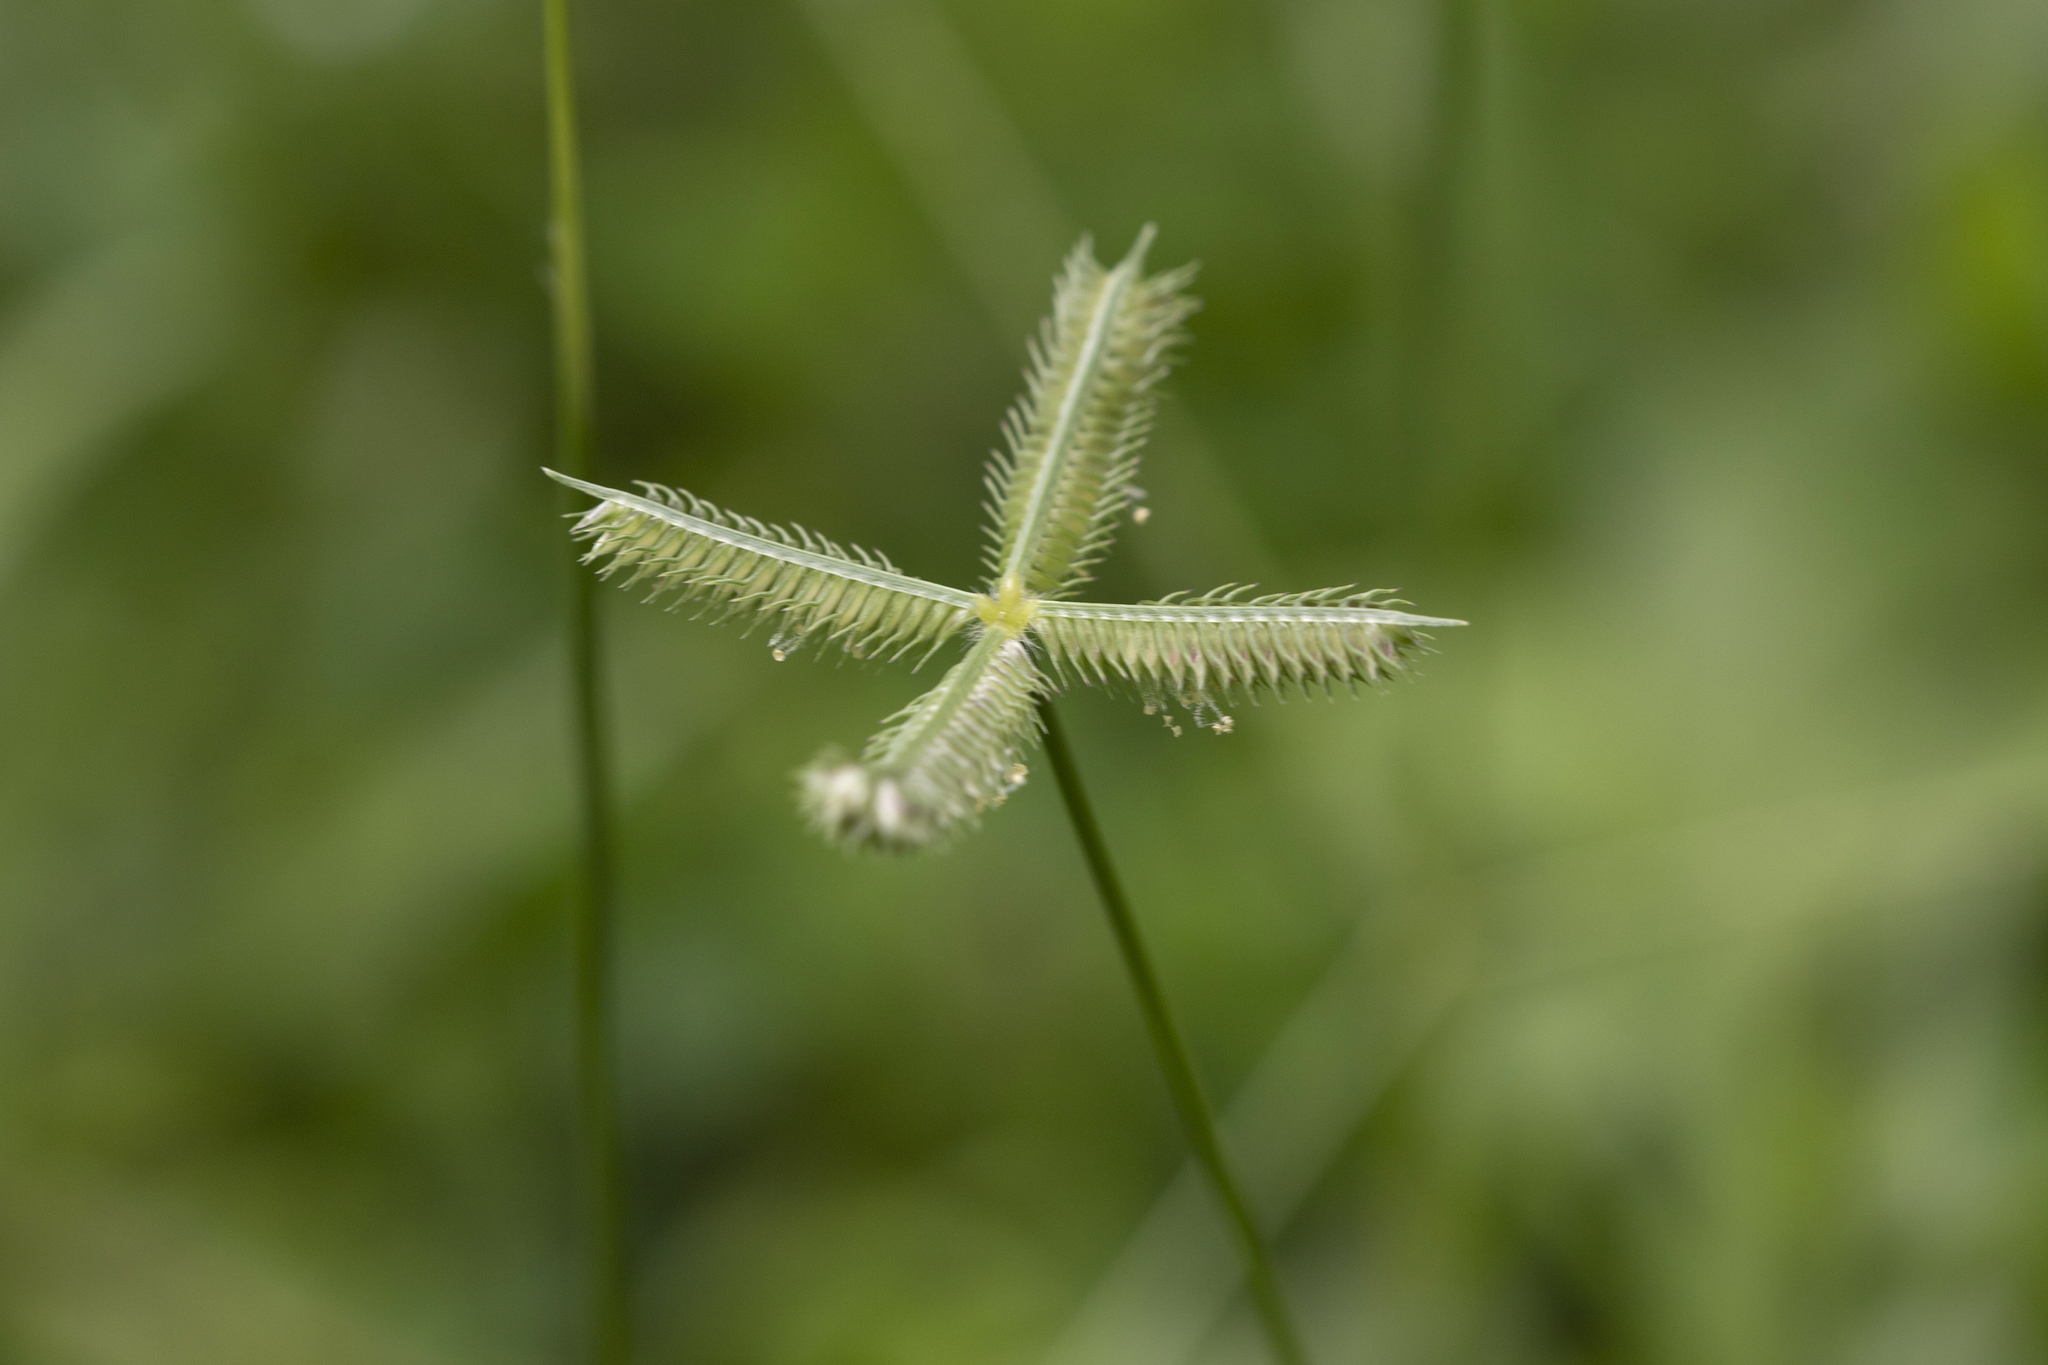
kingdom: Plantae
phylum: Tracheophyta
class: Liliopsida
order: Poales
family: Poaceae
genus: Dactyloctenium
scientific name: Dactyloctenium aegyptium
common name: Egyptian grass
